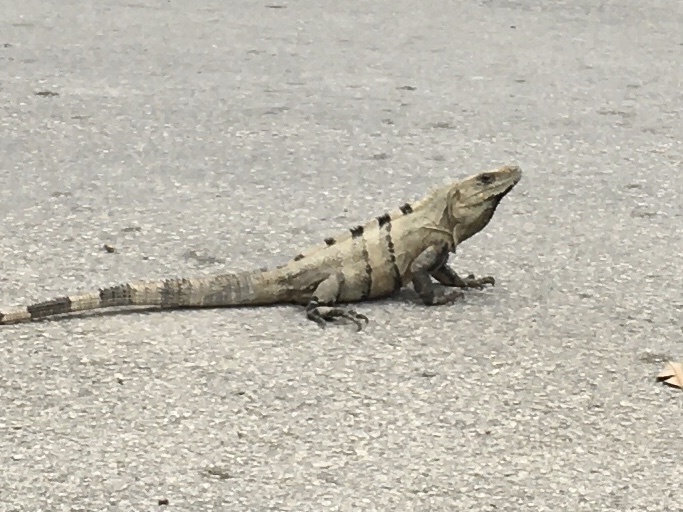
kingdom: Animalia
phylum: Chordata
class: Squamata
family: Iguanidae
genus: Ctenosaura
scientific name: Ctenosaura similis
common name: Black spiny-tailed iguana
